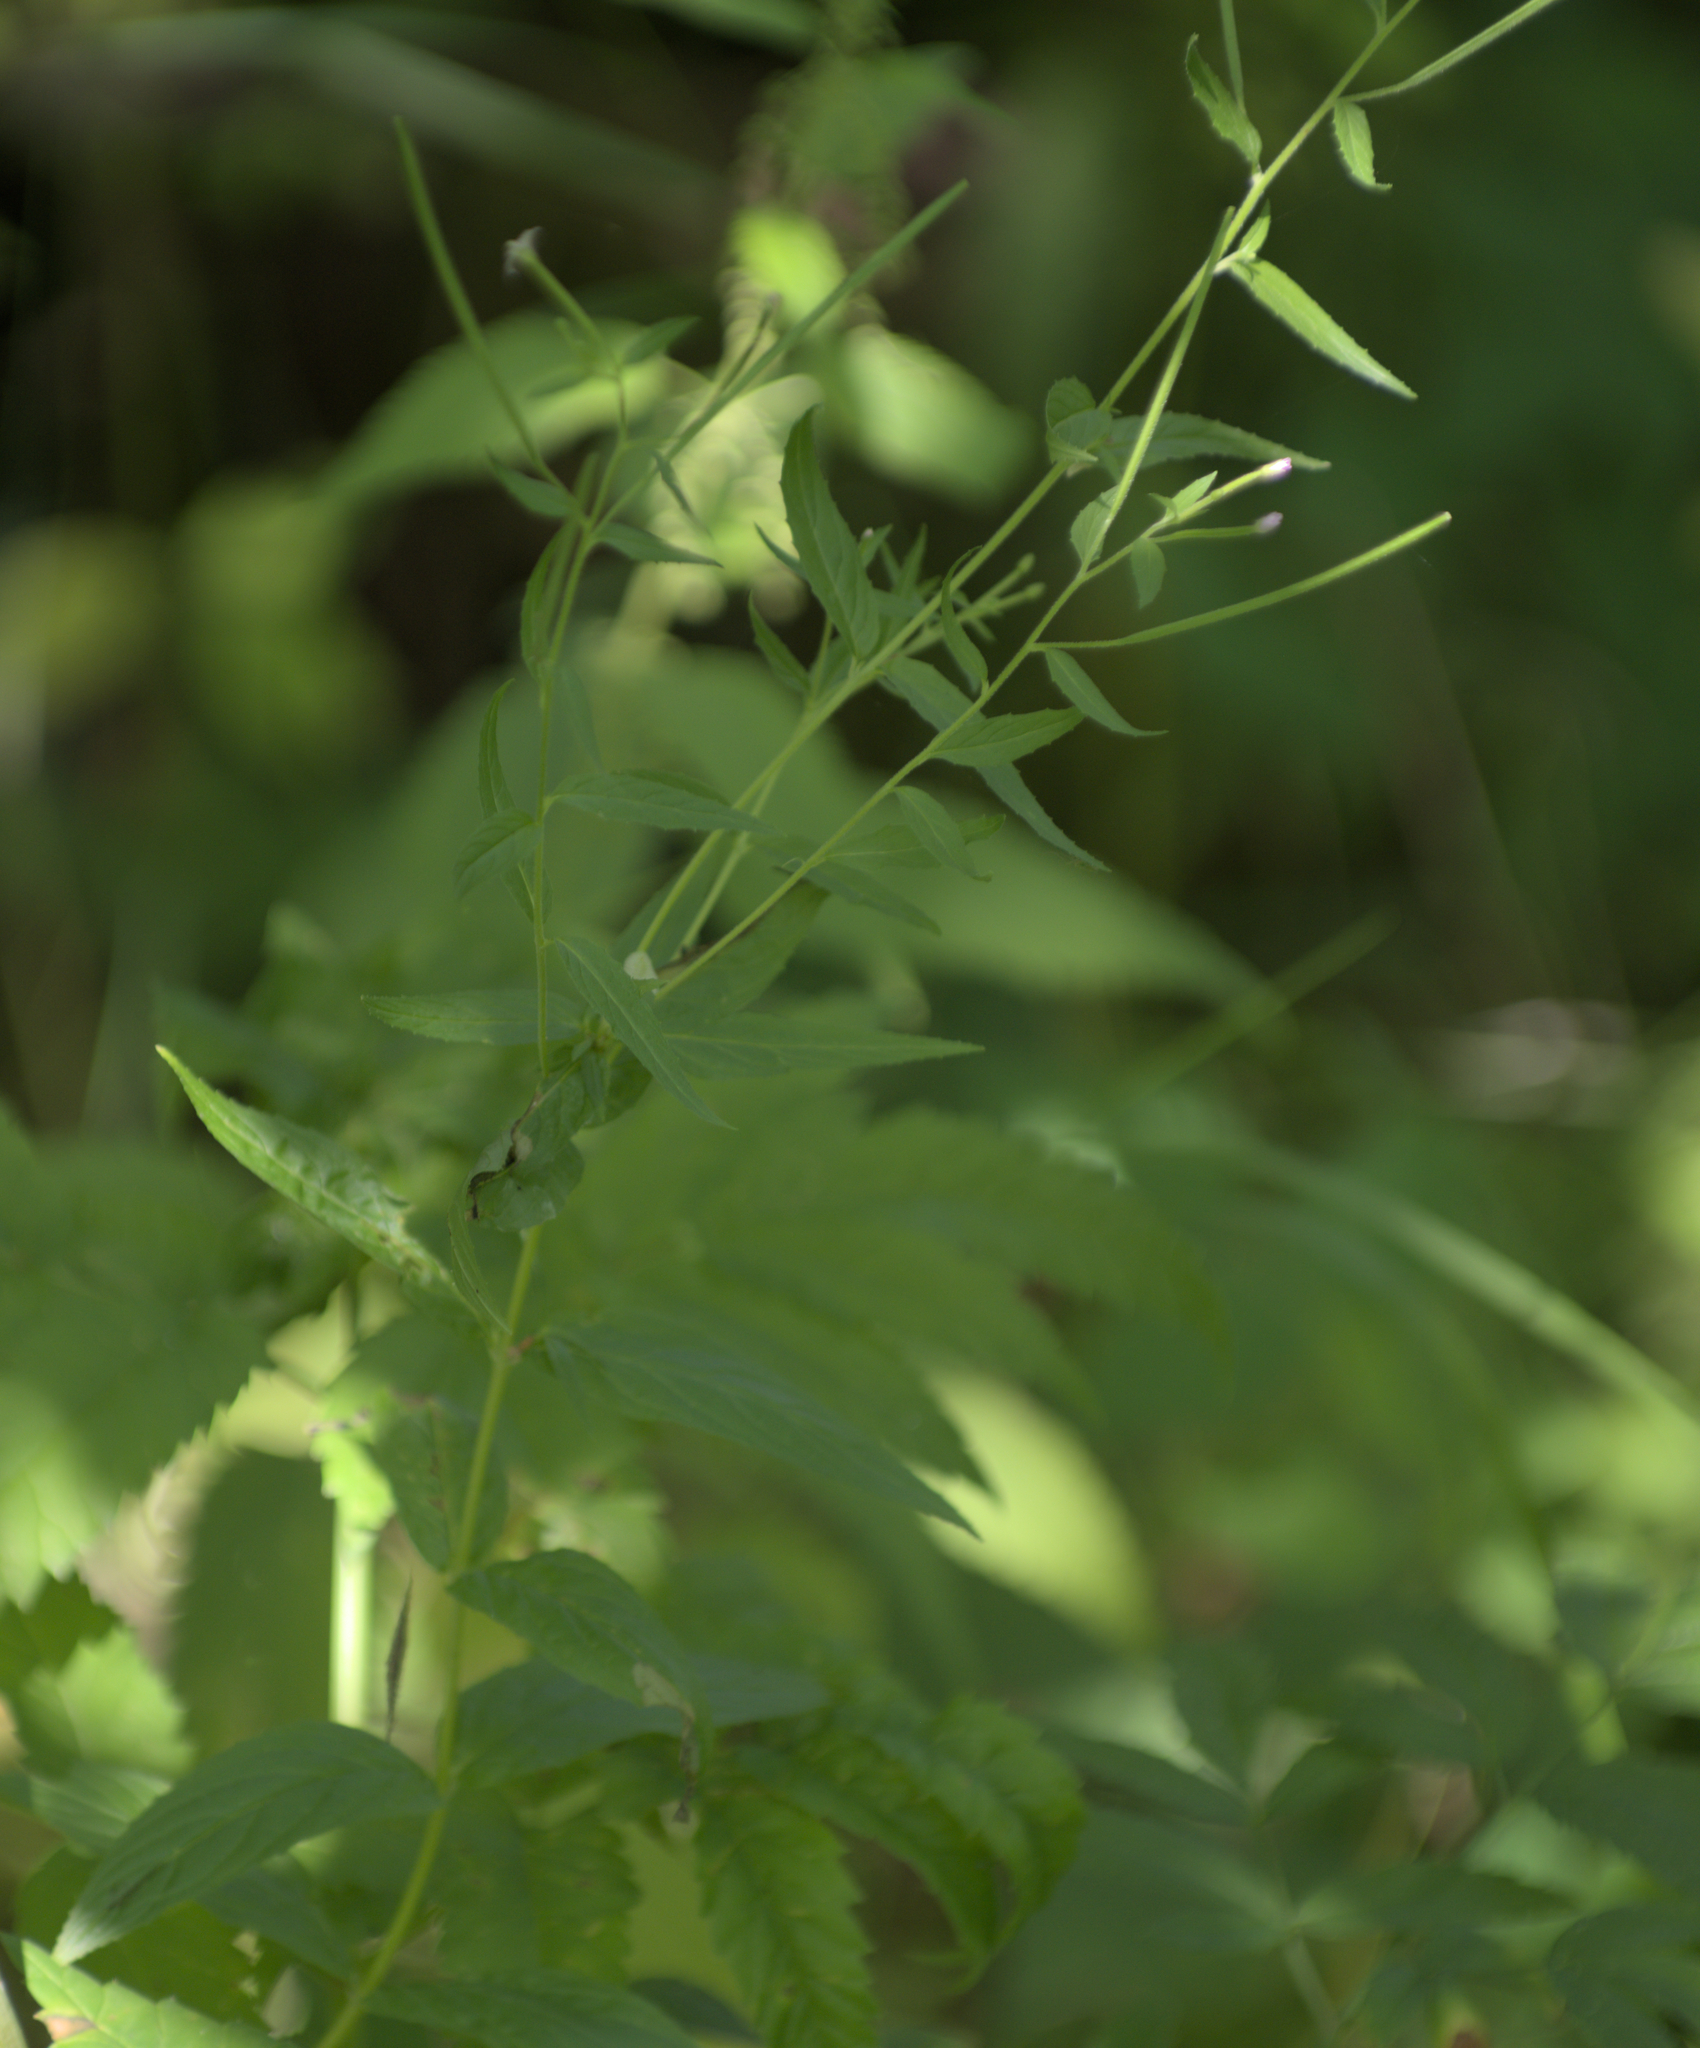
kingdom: Plantae
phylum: Tracheophyta
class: Magnoliopsida
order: Myrtales
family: Onagraceae
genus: Epilobium
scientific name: Epilobium ciliatum
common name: American willowherb
